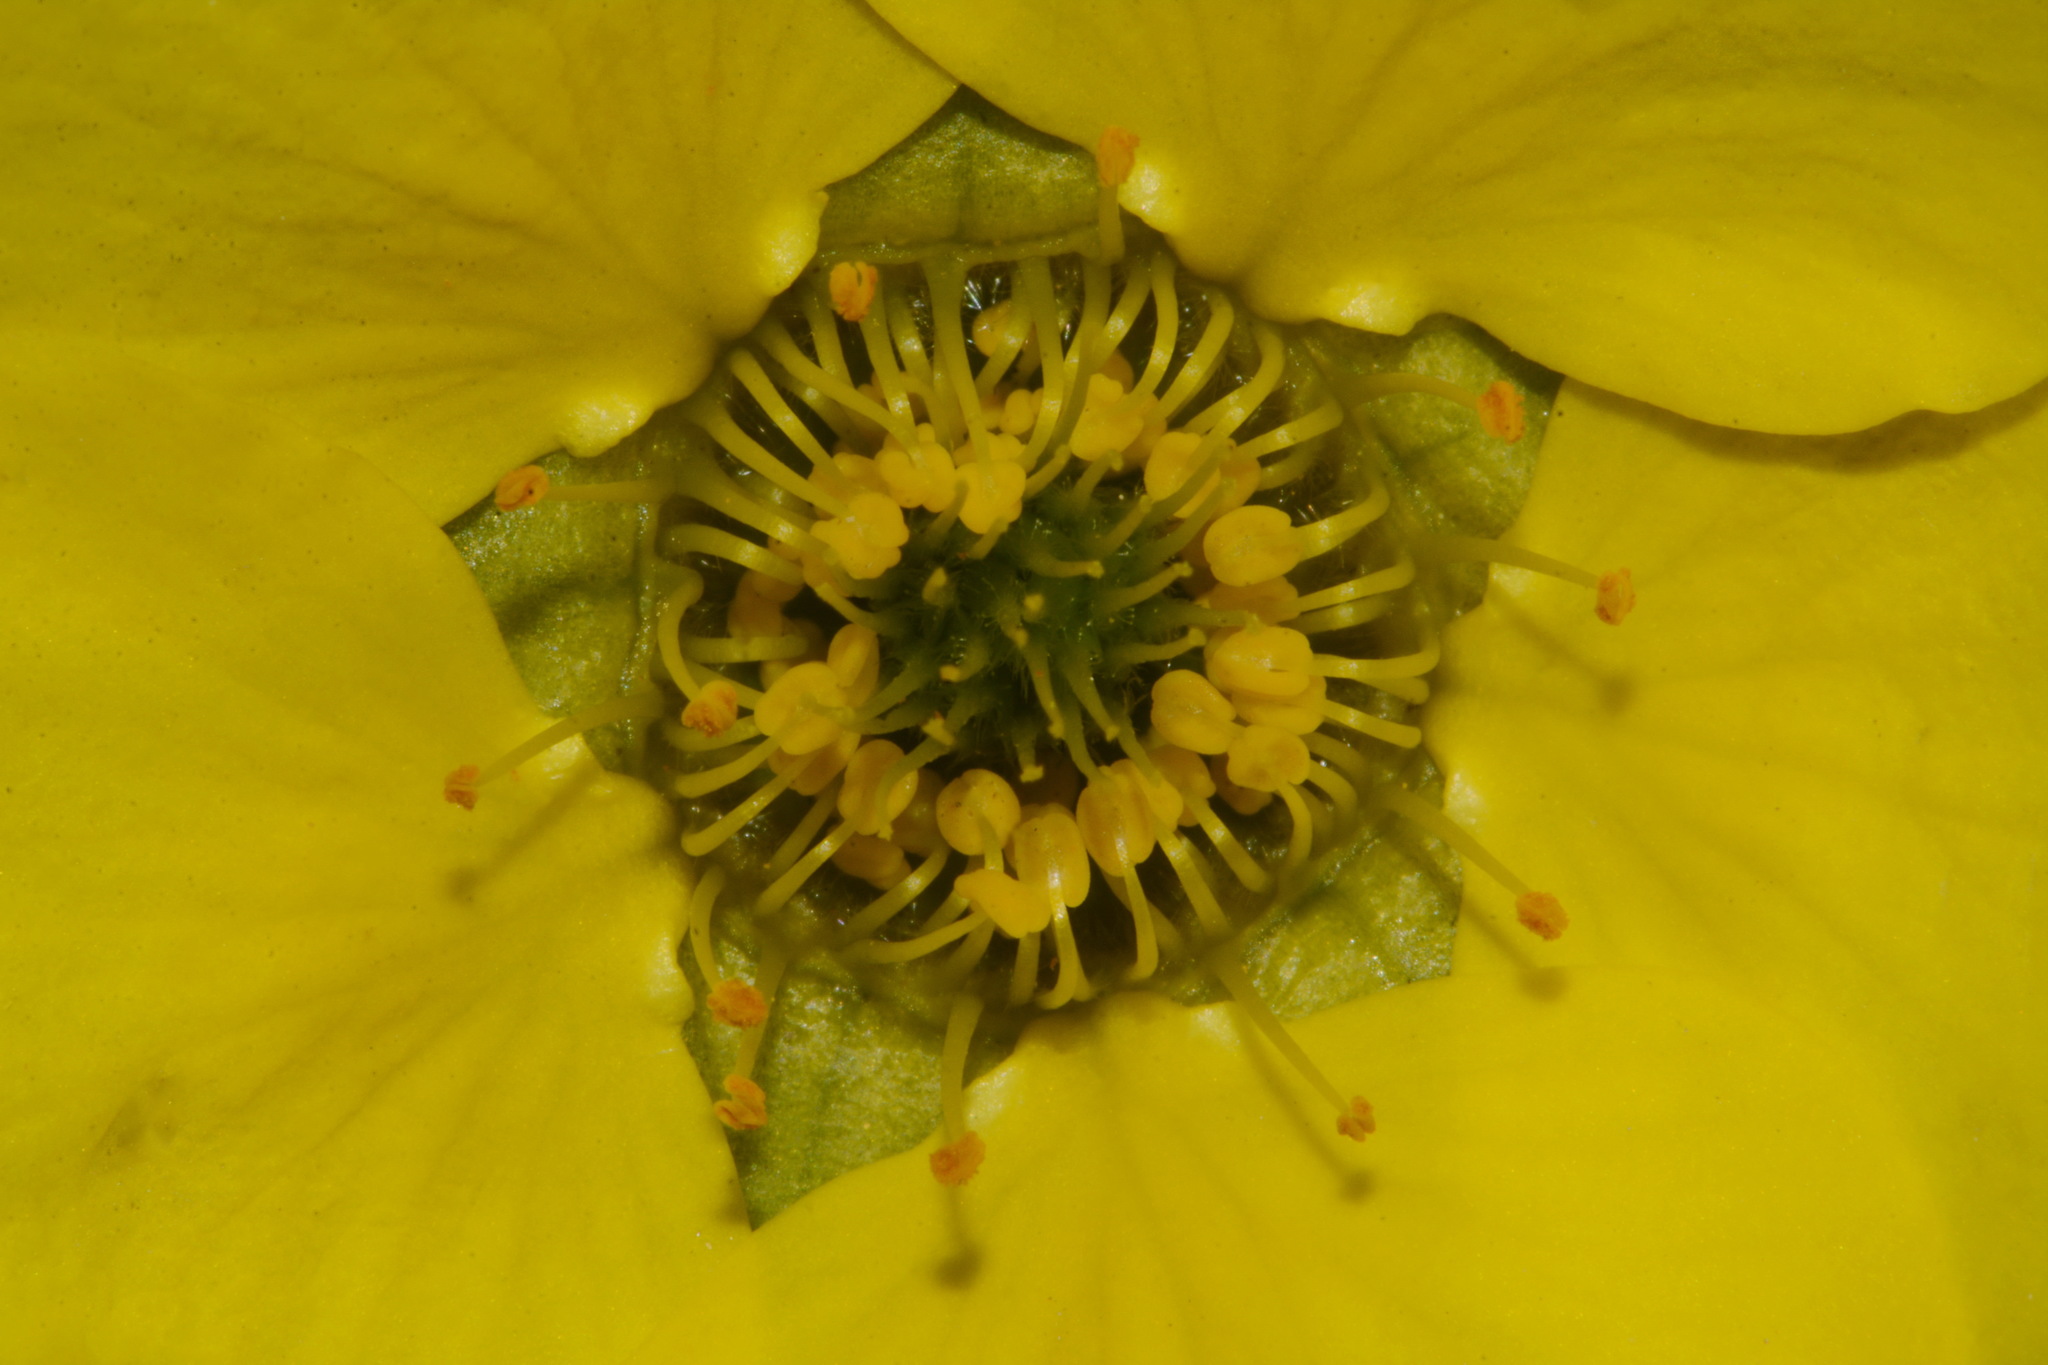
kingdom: Plantae
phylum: Tracheophyta
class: Magnoliopsida
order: Rosales
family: Rosaceae
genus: Geum
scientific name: Geum rossii
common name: Alpine avens
